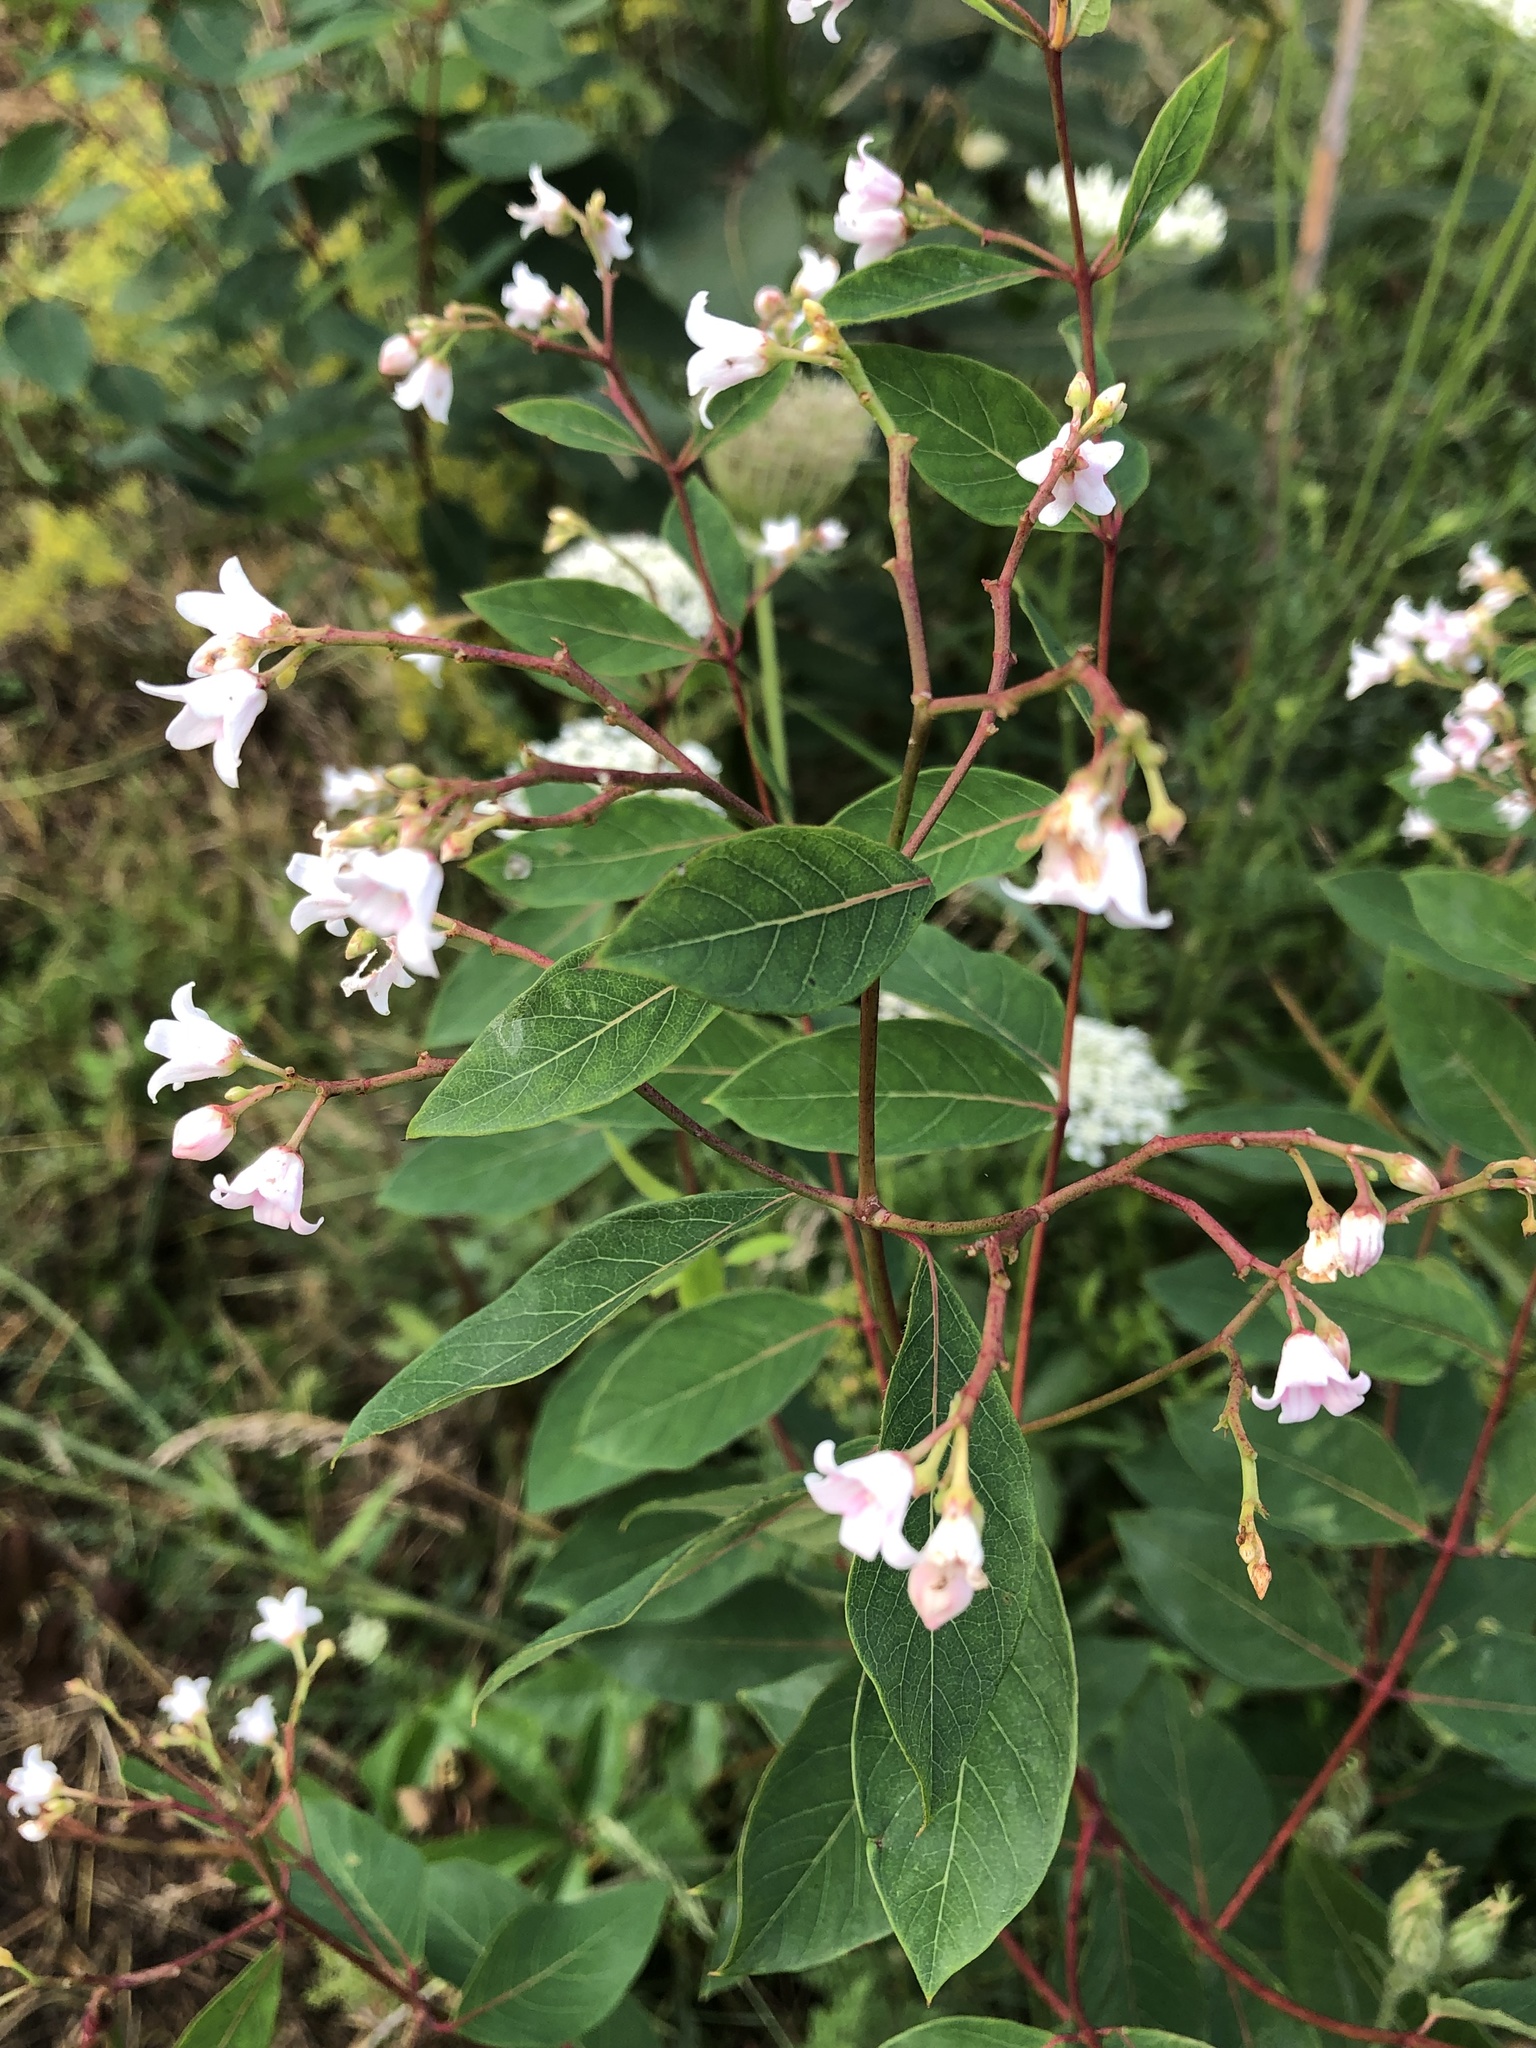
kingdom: Plantae
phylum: Tracheophyta
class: Magnoliopsida
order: Gentianales
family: Apocynaceae
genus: Apocynum
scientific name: Apocynum androsaemifolium
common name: Spreading dogbane
